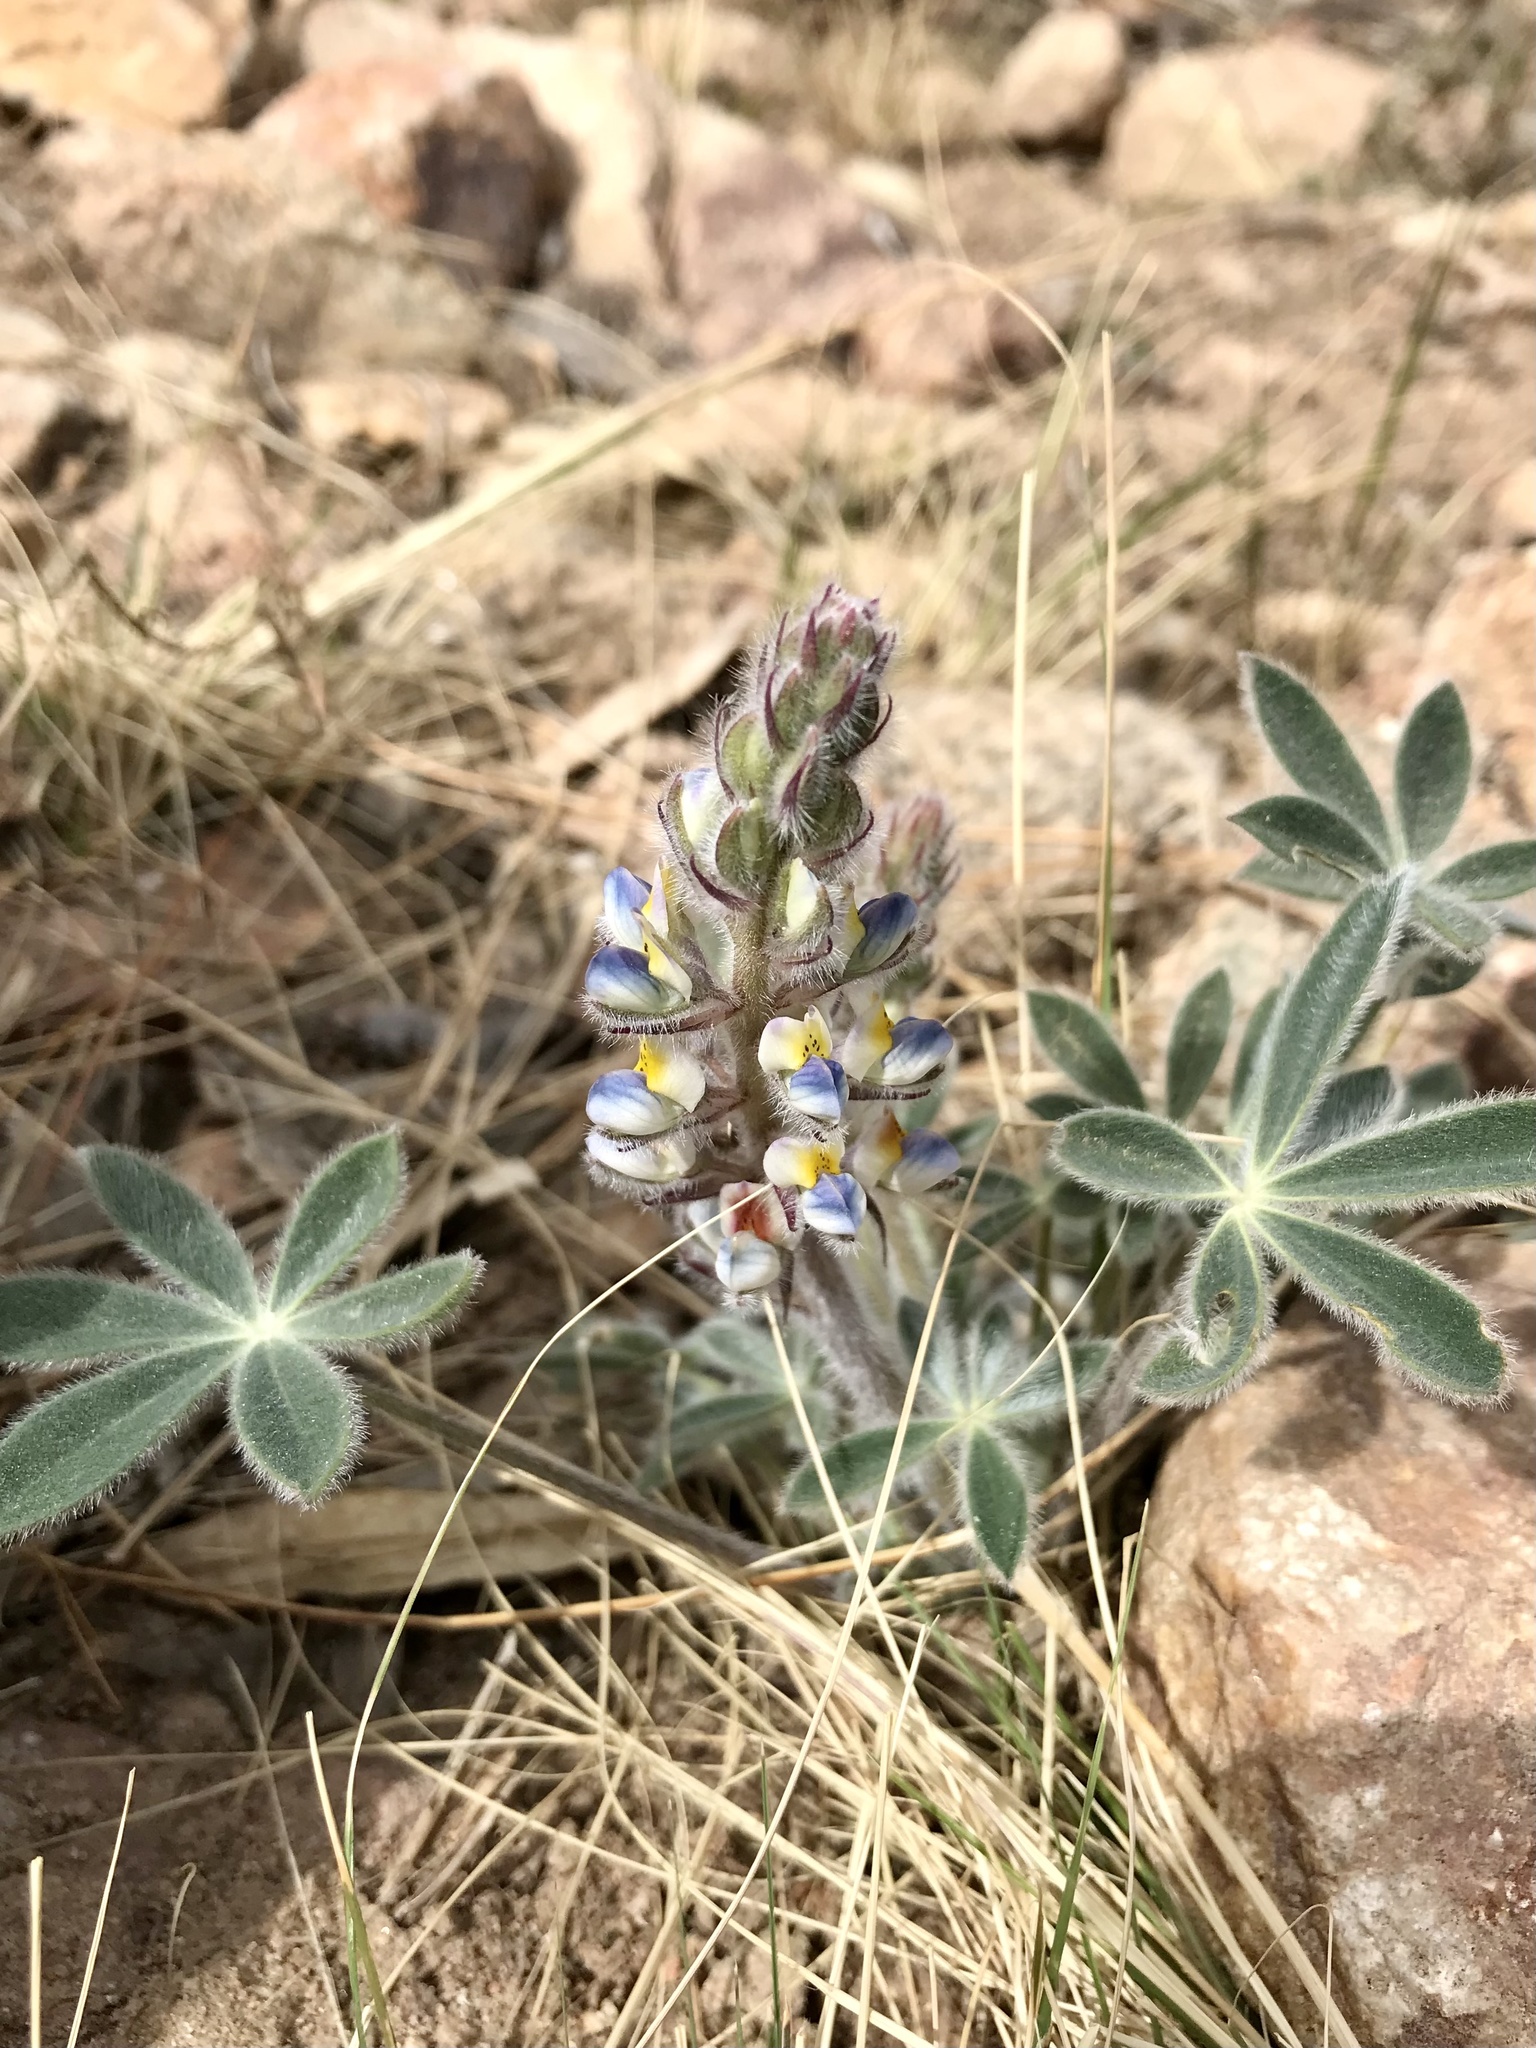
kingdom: Plantae
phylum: Tracheophyta
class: Magnoliopsida
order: Fabales
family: Fabaceae
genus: Lupinus
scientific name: Lupinus huachucanus
